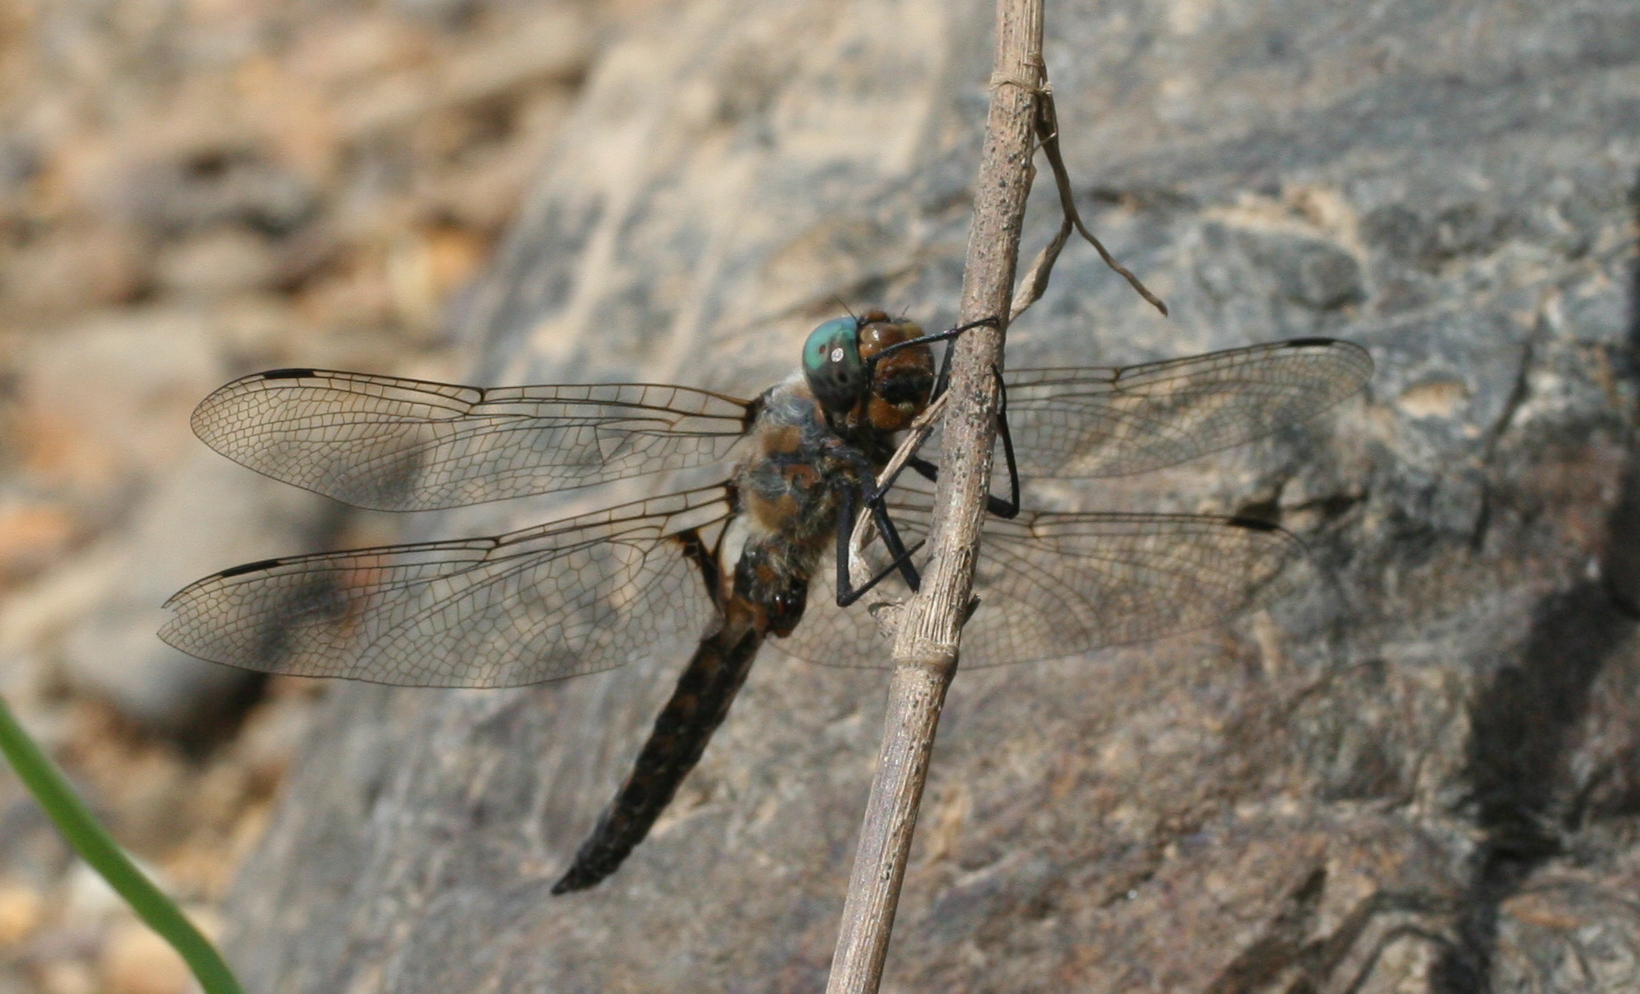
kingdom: Animalia
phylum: Arthropoda
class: Insecta
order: Odonata
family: Corduliidae
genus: Epitheca
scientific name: Epitheca bimaculata
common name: Eurasian baskettail
